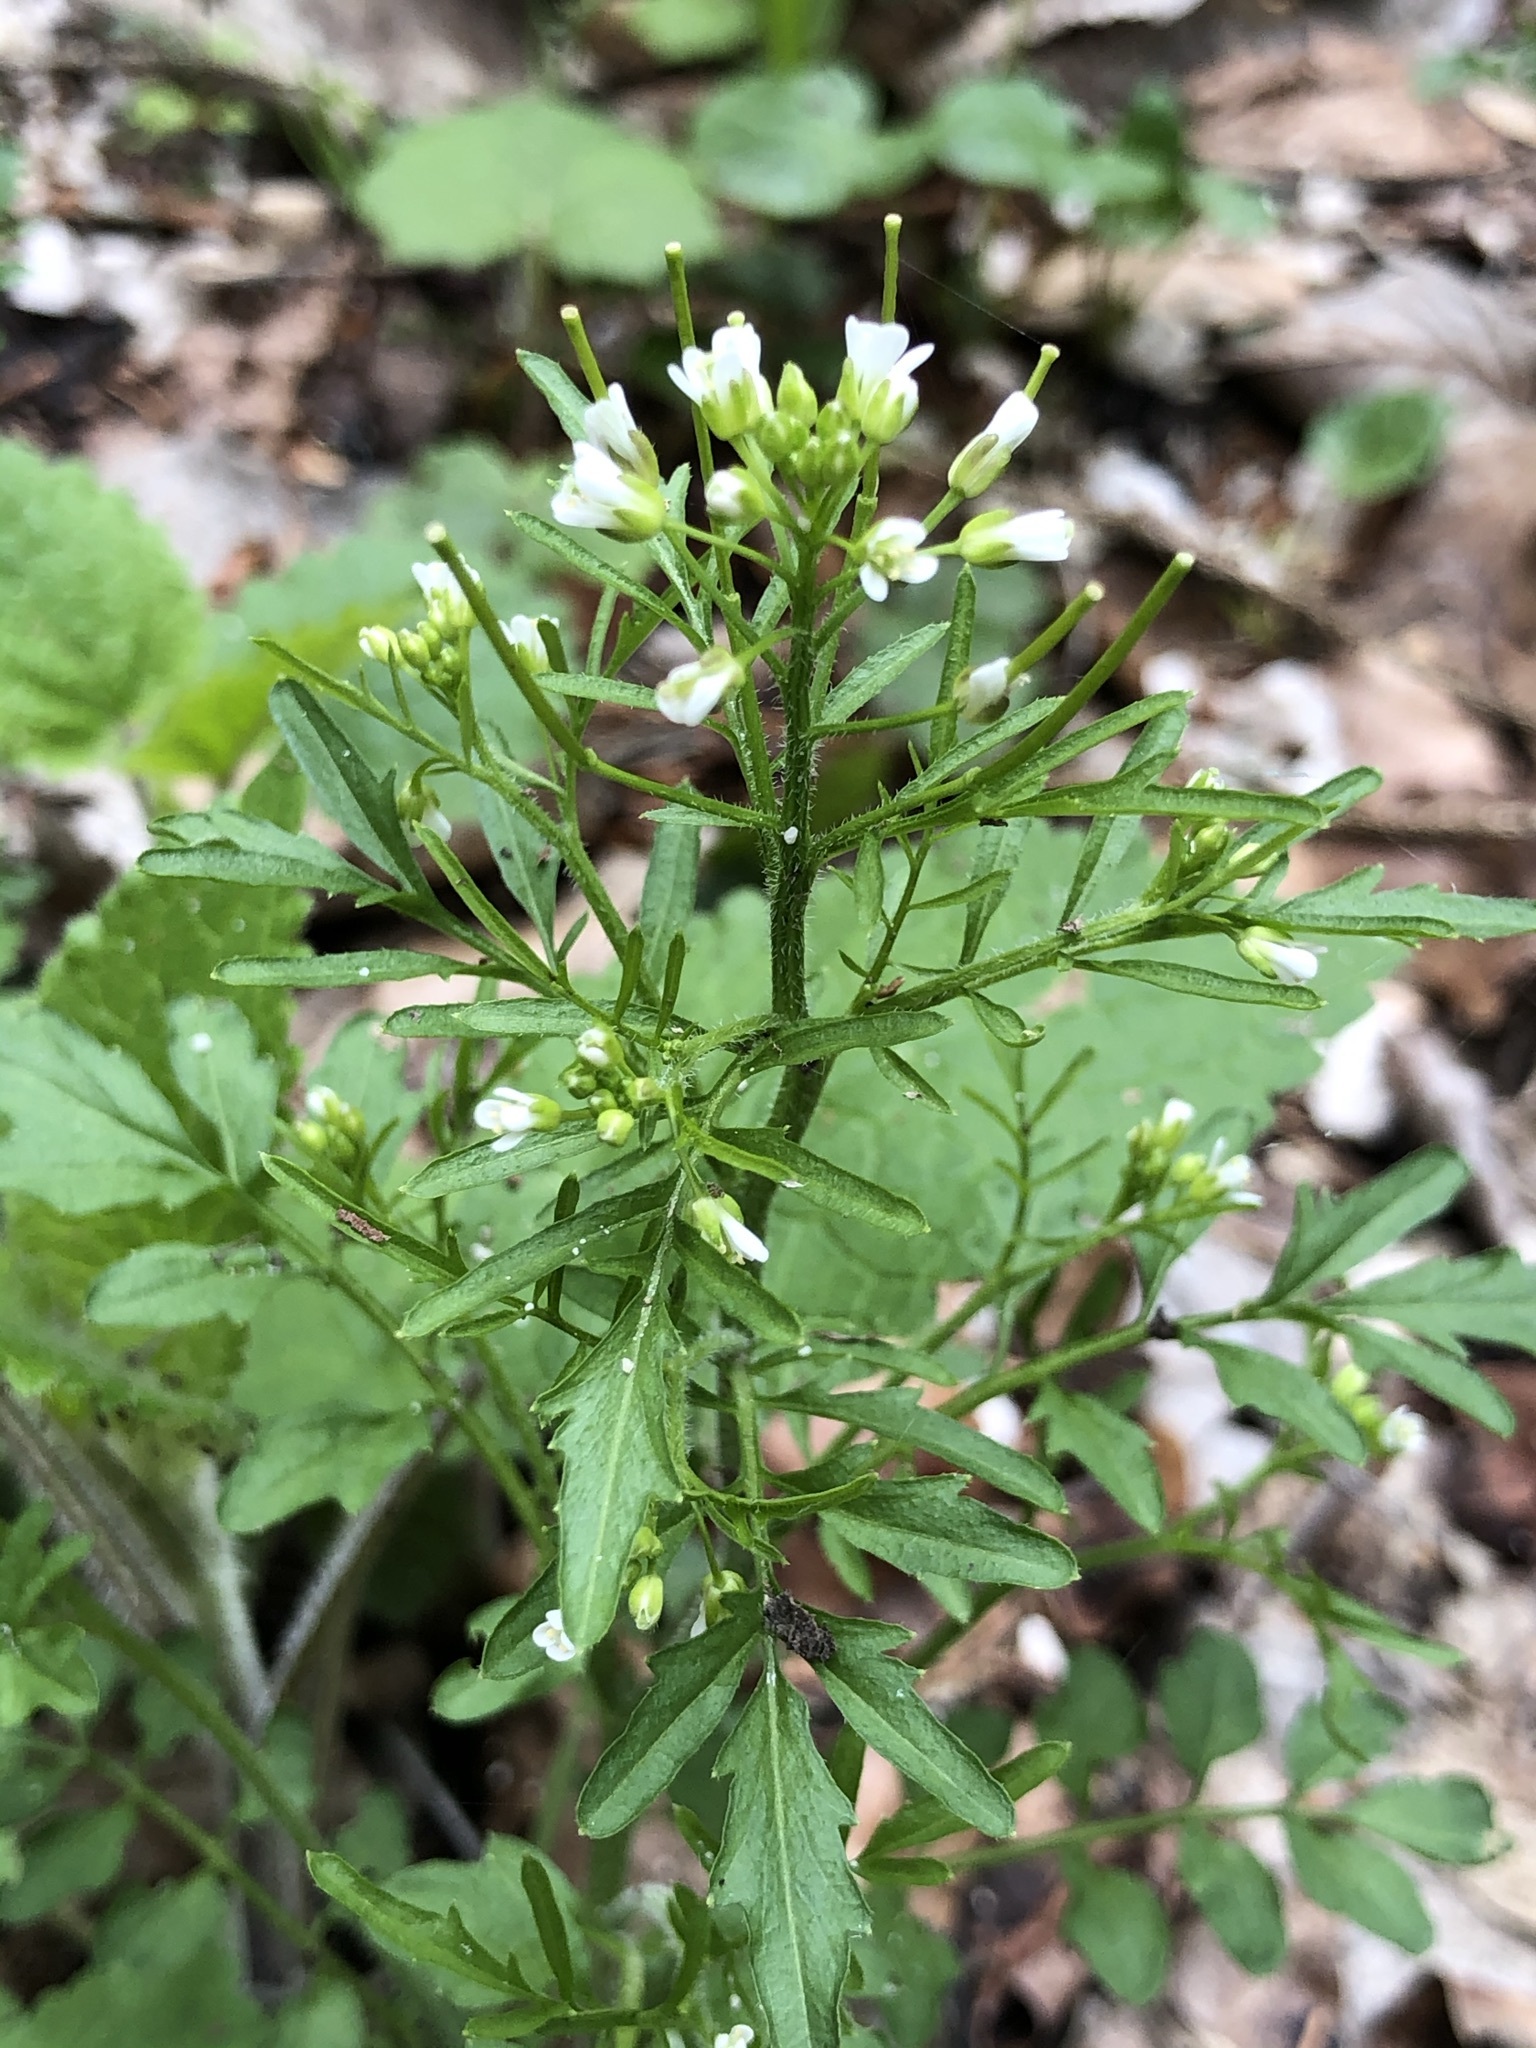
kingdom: Plantae
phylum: Tracheophyta
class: Magnoliopsida
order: Brassicales
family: Brassicaceae
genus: Cardamine
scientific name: Cardamine flexuosa
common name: Woodland bittercress
